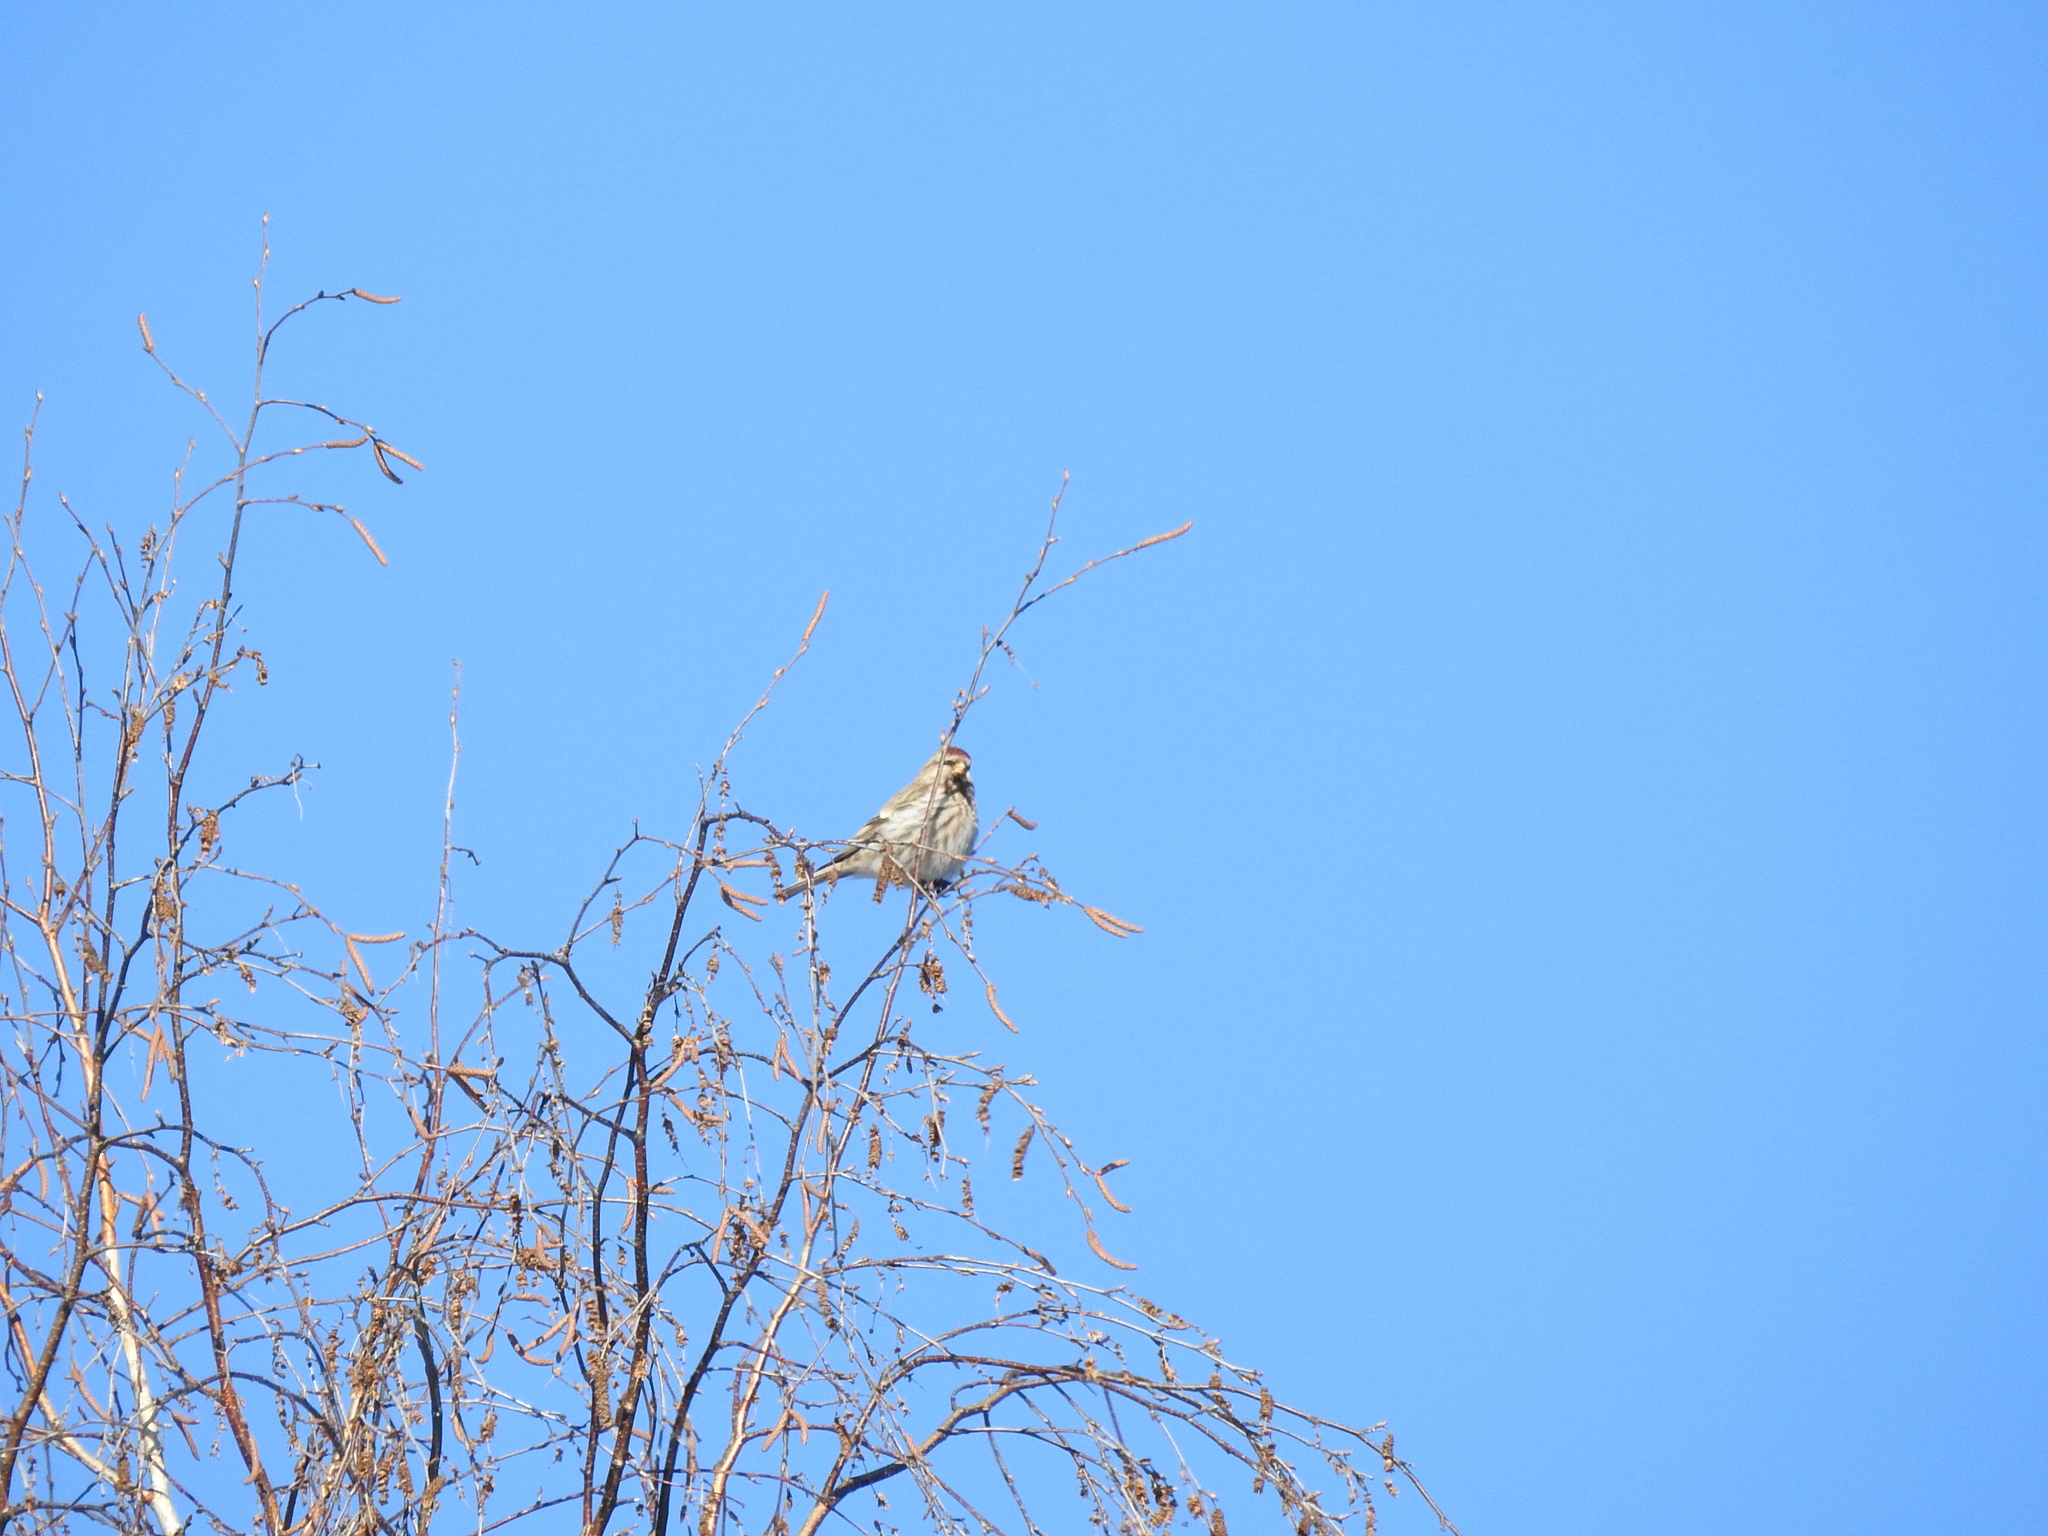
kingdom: Animalia
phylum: Chordata
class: Aves
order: Passeriformes
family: Fringillidae
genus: Acanthis
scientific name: Acanthis flammea
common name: Common redpoll
